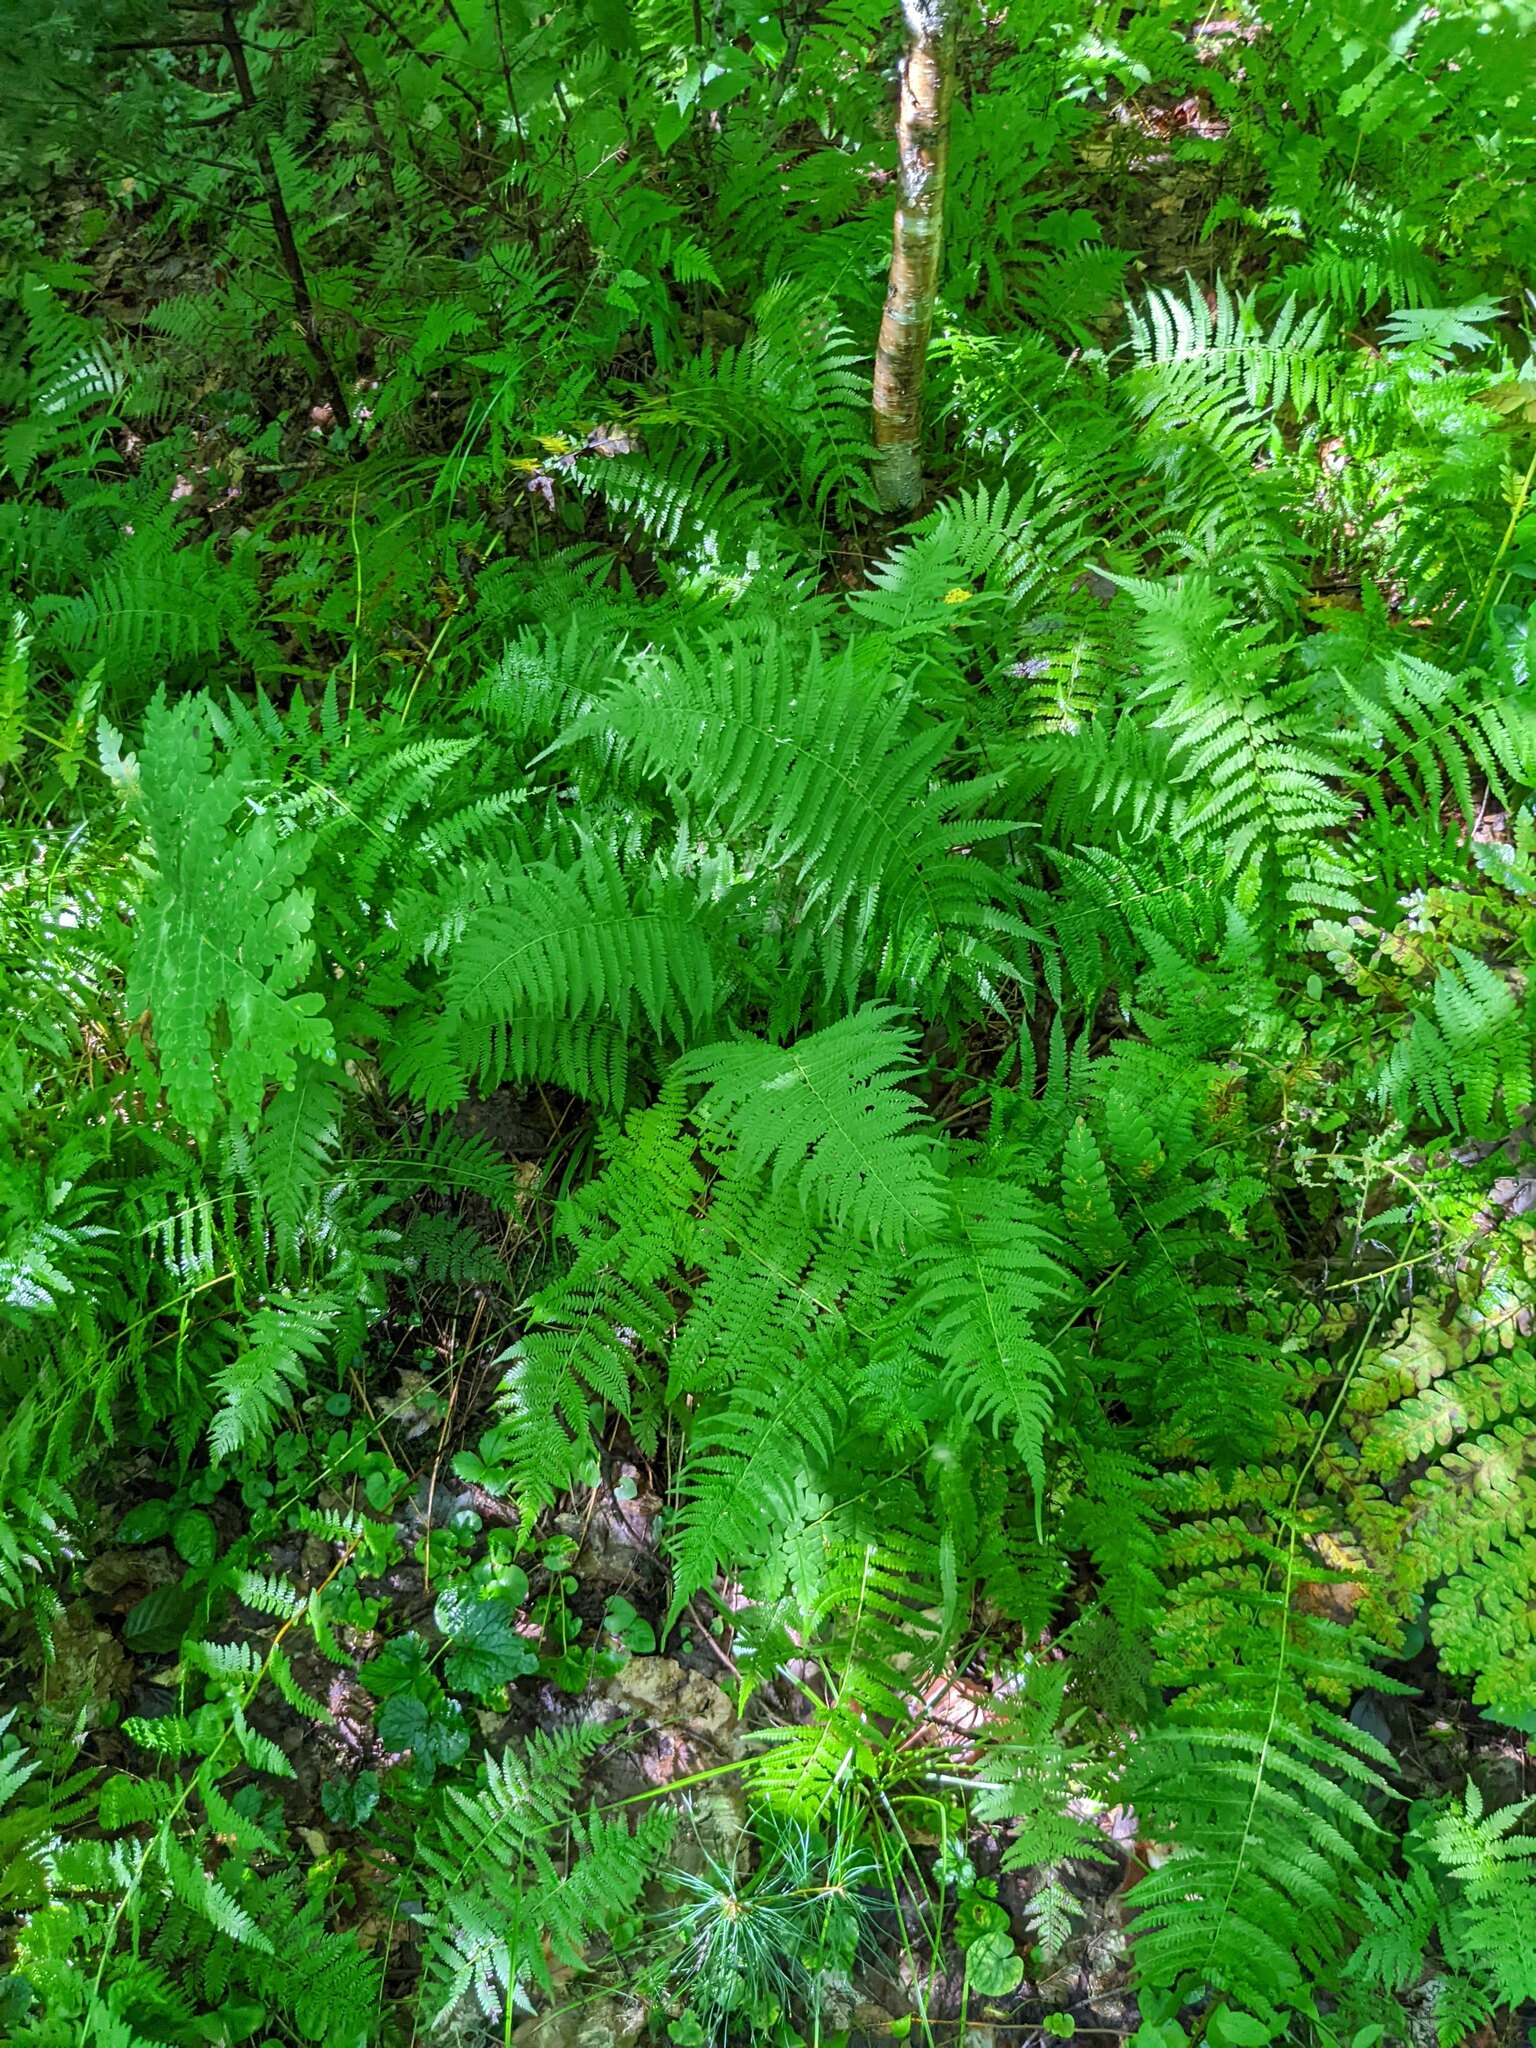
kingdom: Plantae
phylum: Tracheophyta
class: Polypodiopsida
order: Polypodiales
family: Thelypteridaceae
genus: Amauropelta
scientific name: Amauropelta noveboracensis
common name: New york fern
